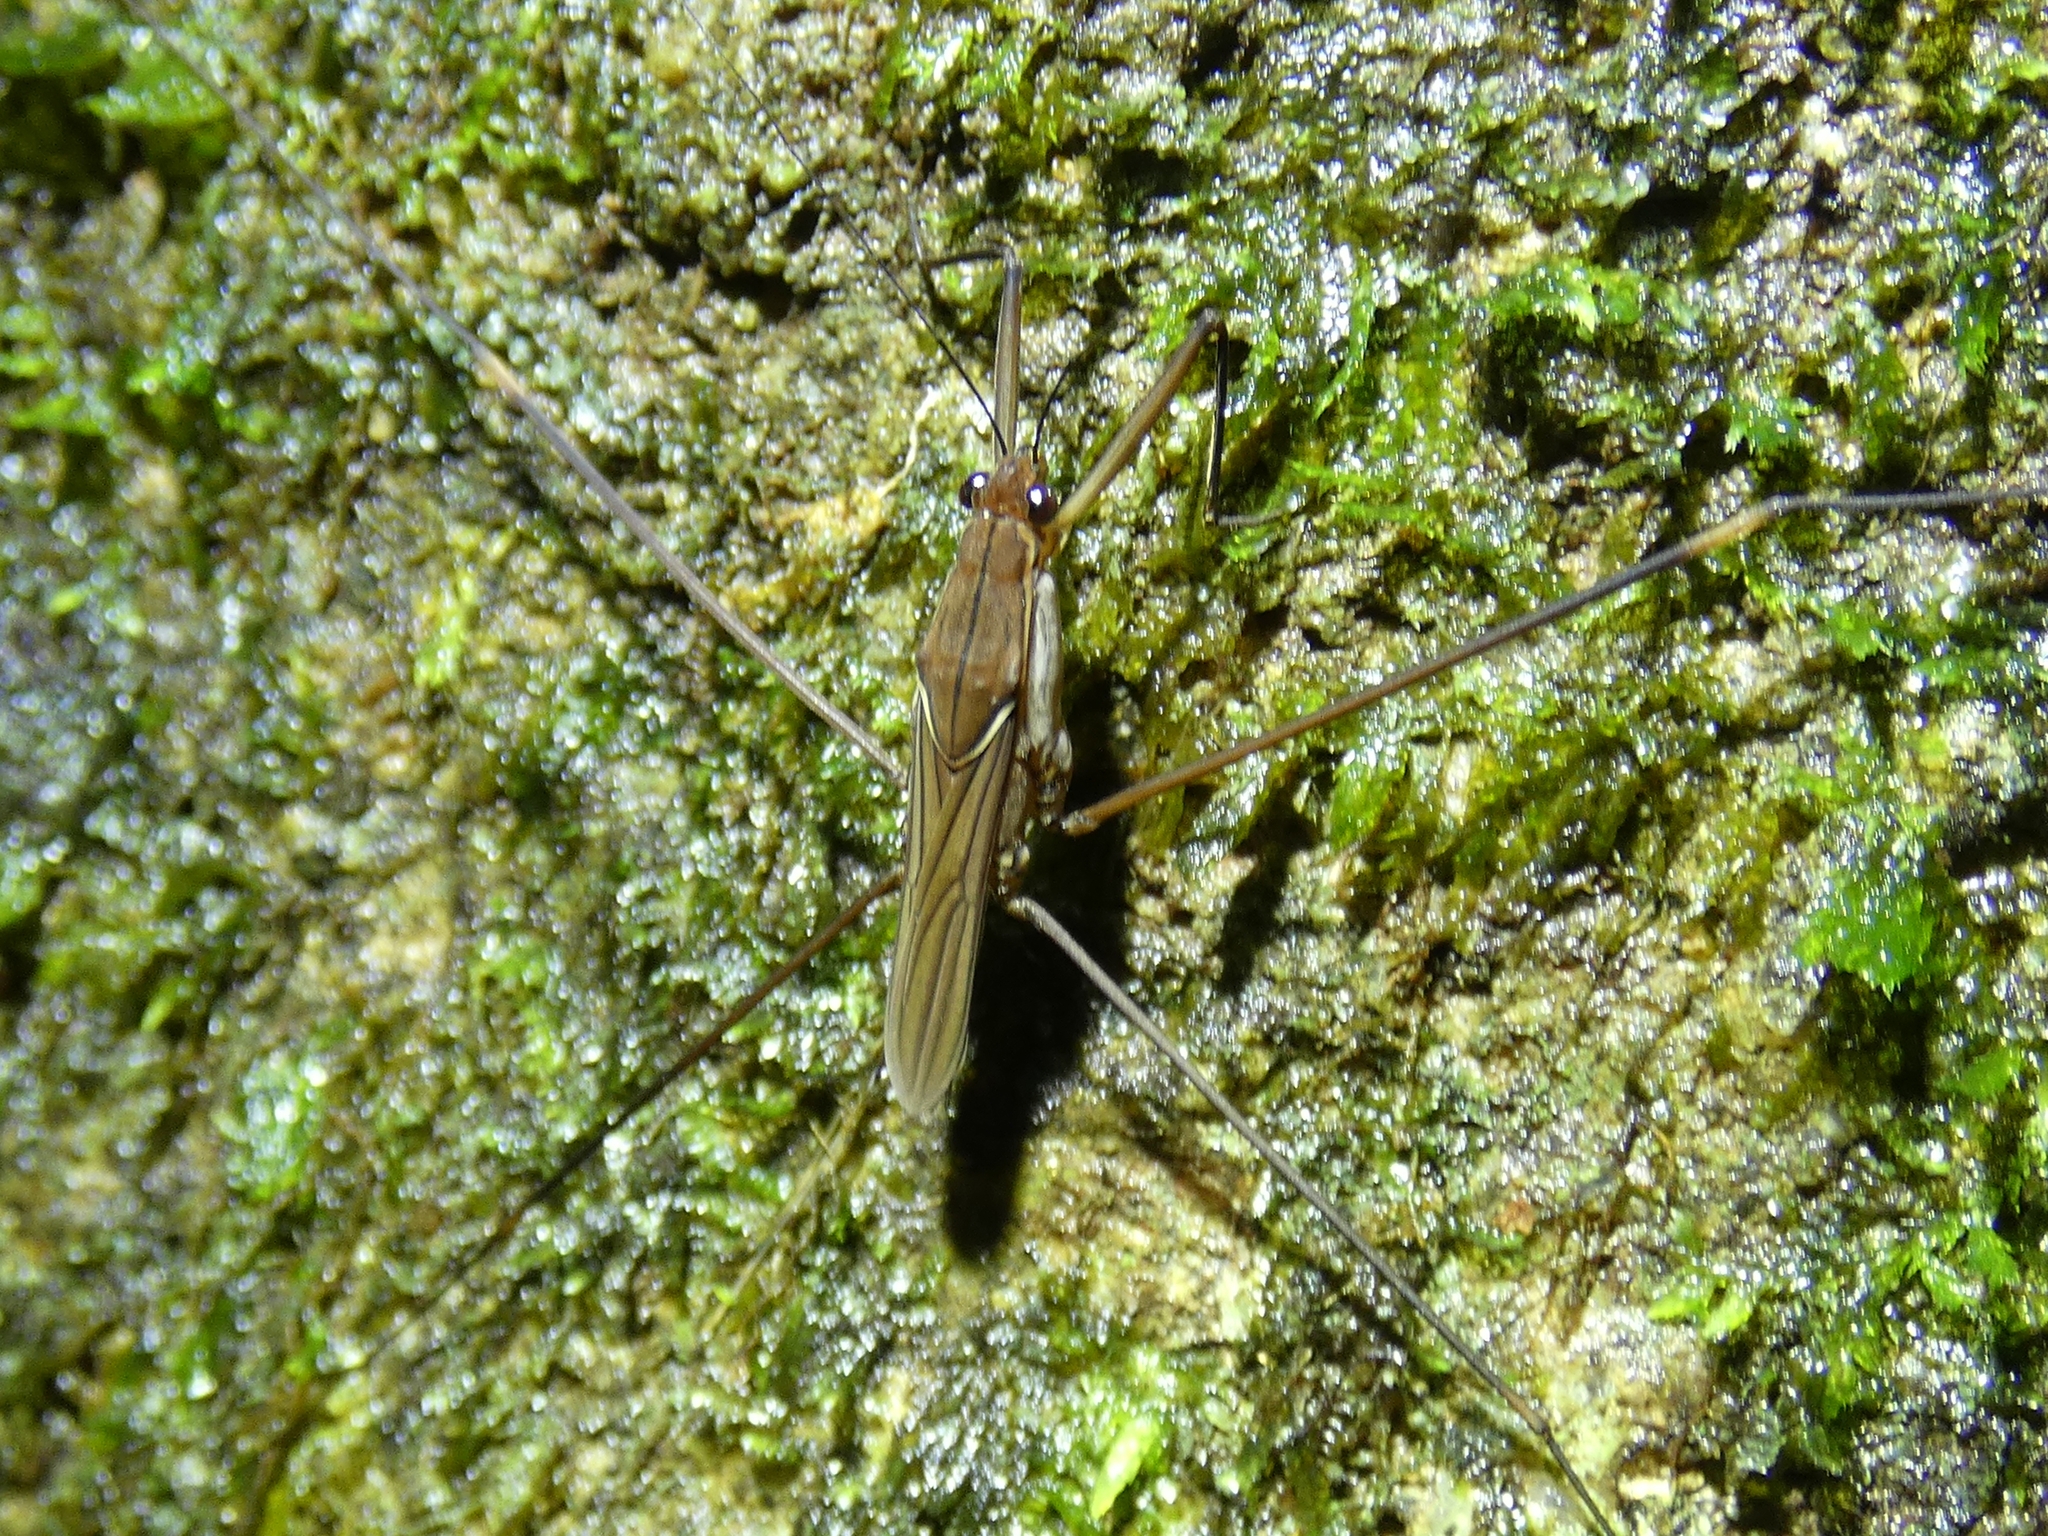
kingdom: Animalia
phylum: Arthropoda
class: Insecta
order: Hemiptera
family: Gerridae
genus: Limnometra
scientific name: Limnometra
